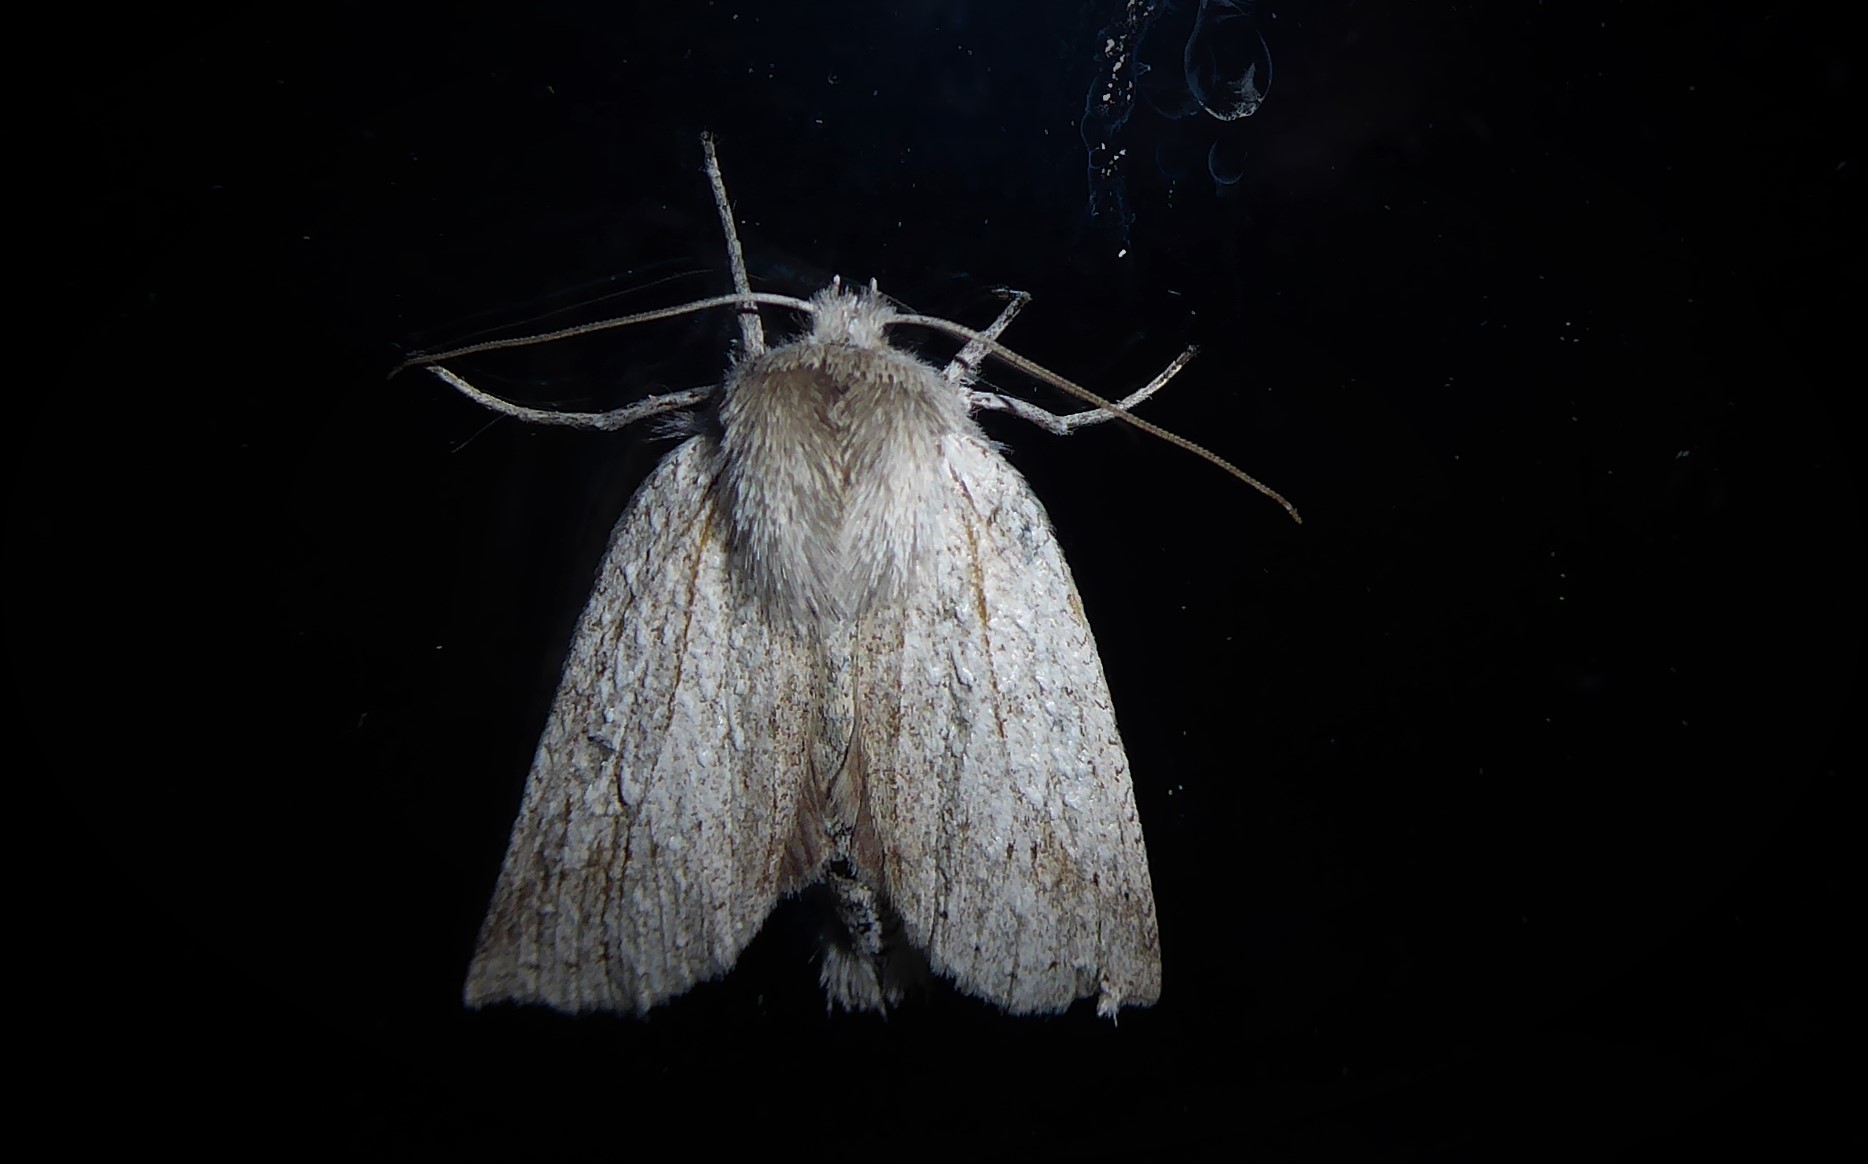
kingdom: Animalia
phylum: Arthropoda
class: Insecta
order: Lepidoptera
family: Geometridae
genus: Declana
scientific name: Declana leptomera
